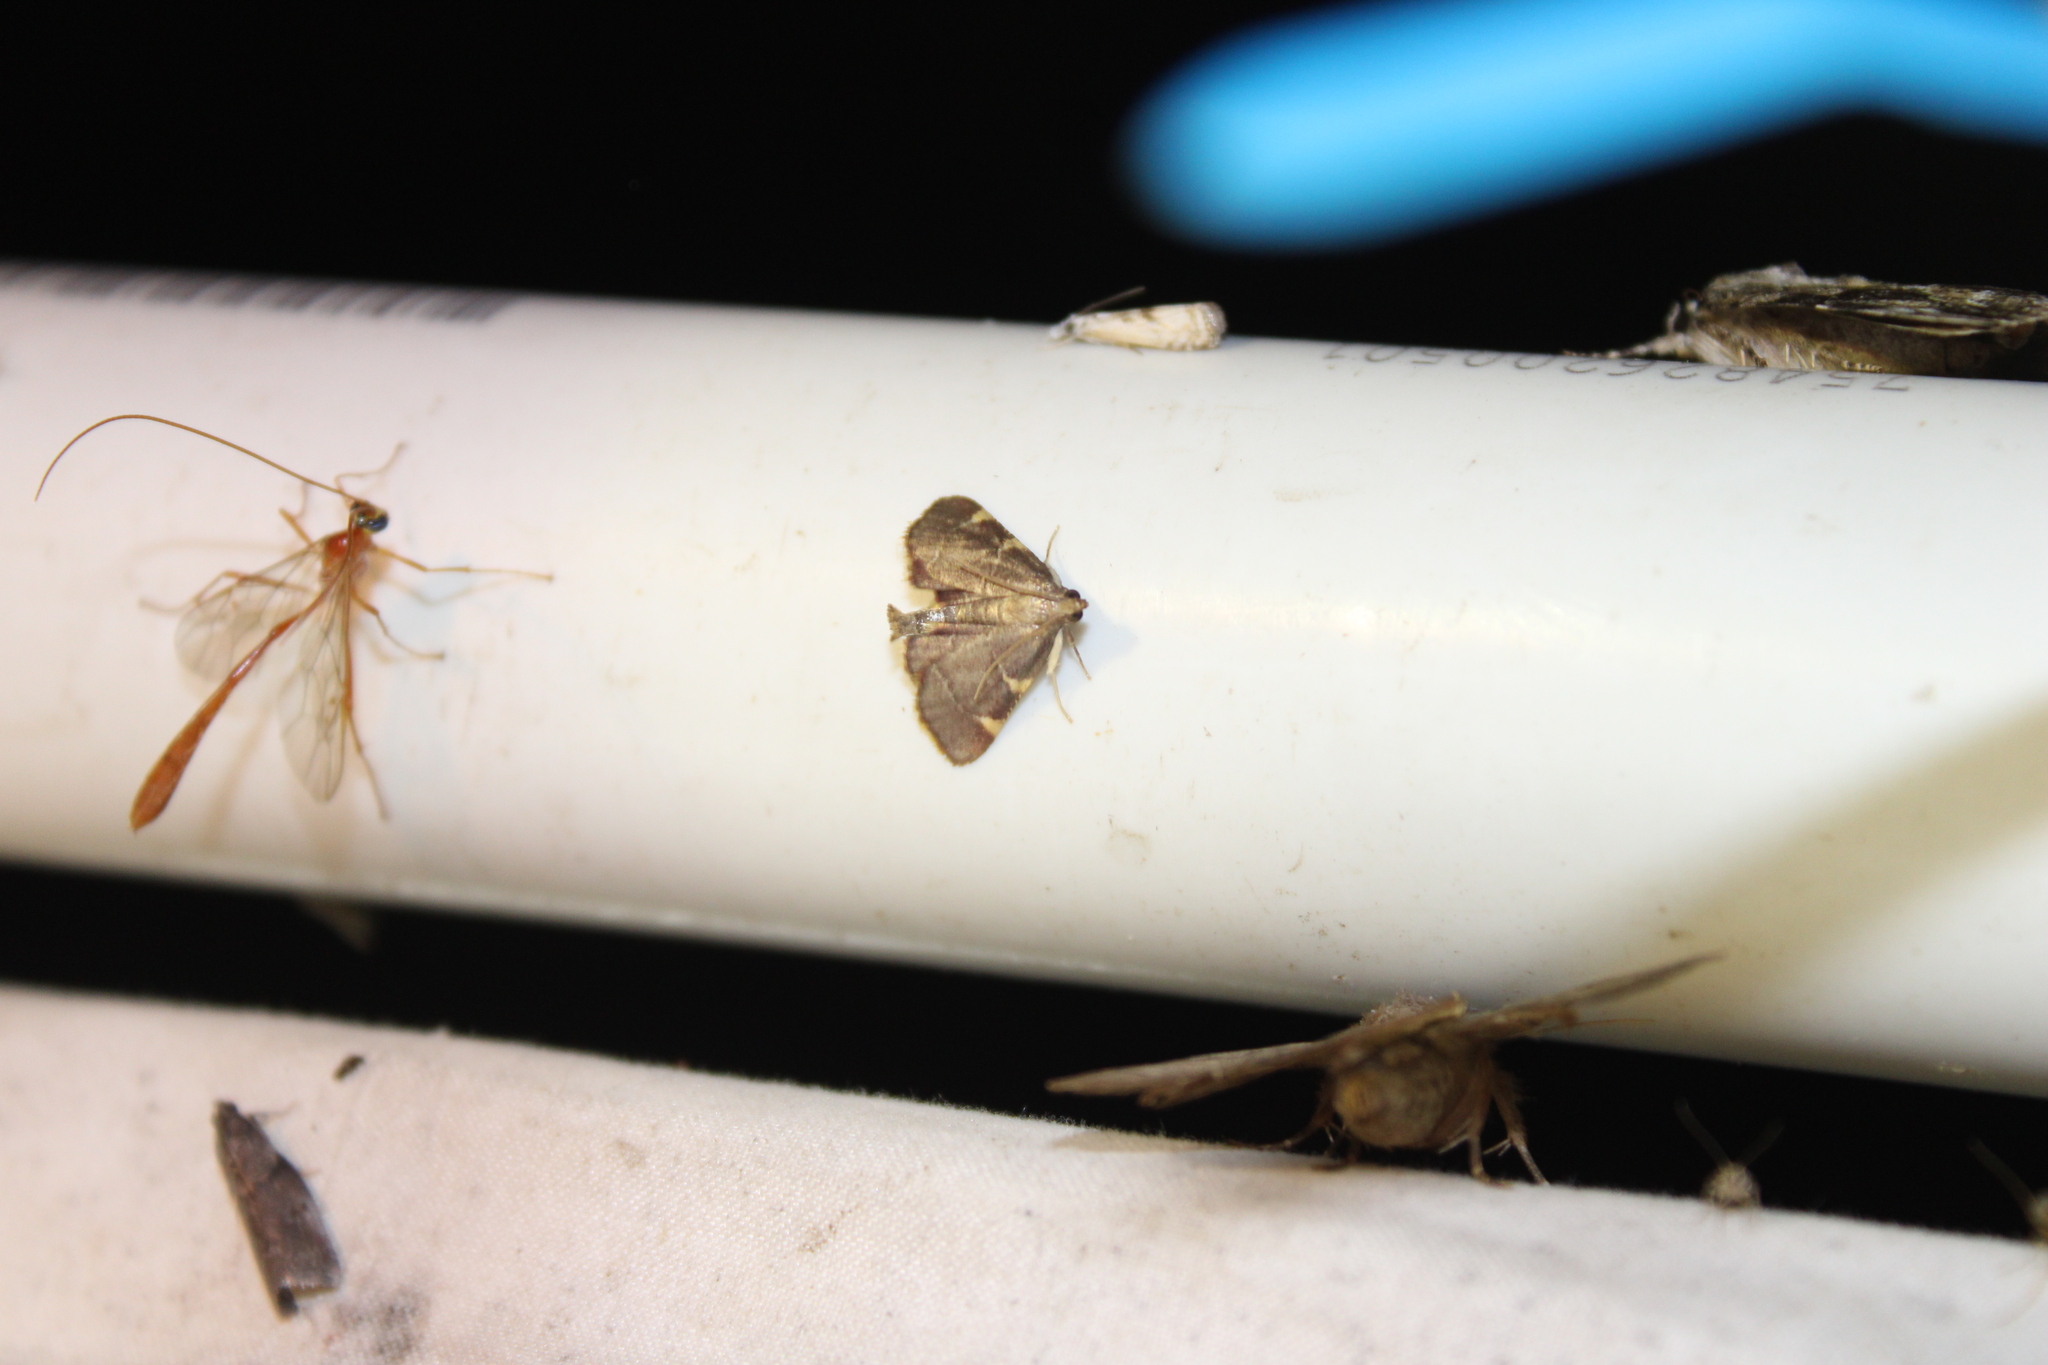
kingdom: Animalia
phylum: Arthropoda
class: Insecta
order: Lepidoptera
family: Pyralidae
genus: Hypsopygia
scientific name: Hypsopygia olinalis
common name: Yellow-fringed dolichomia moth
